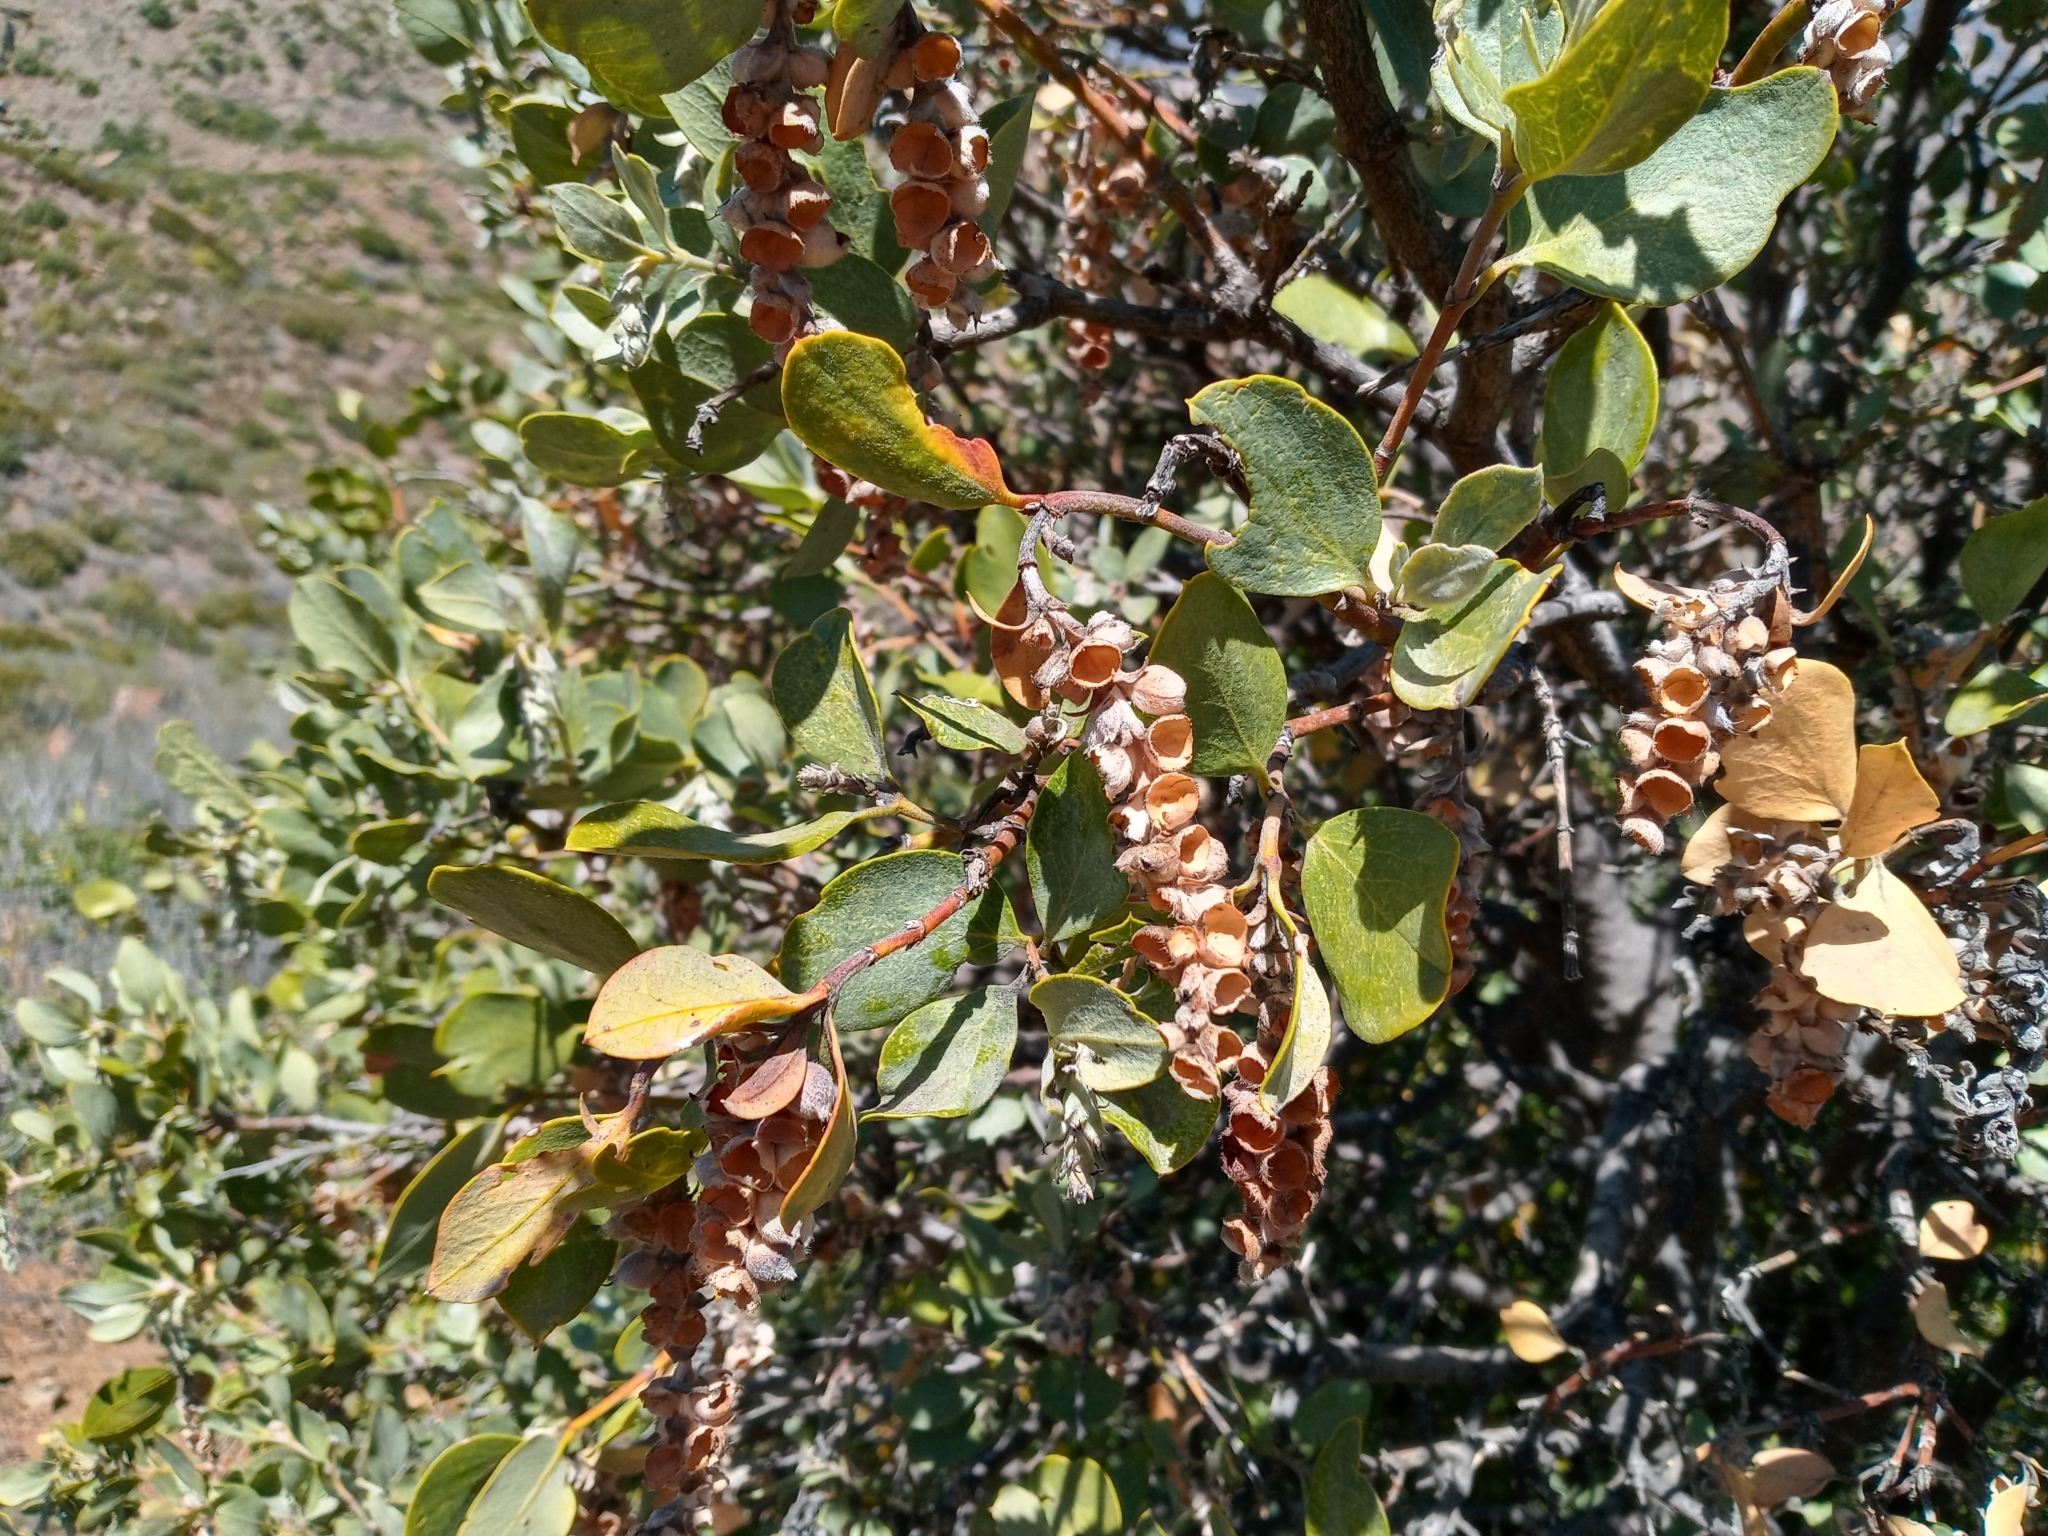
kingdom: Plantae
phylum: Tracheophyta
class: Magnoliopsida
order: Garryales
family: Garryaceae
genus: Garrya
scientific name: Garrya flavescens
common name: Ashy silk-tassel
